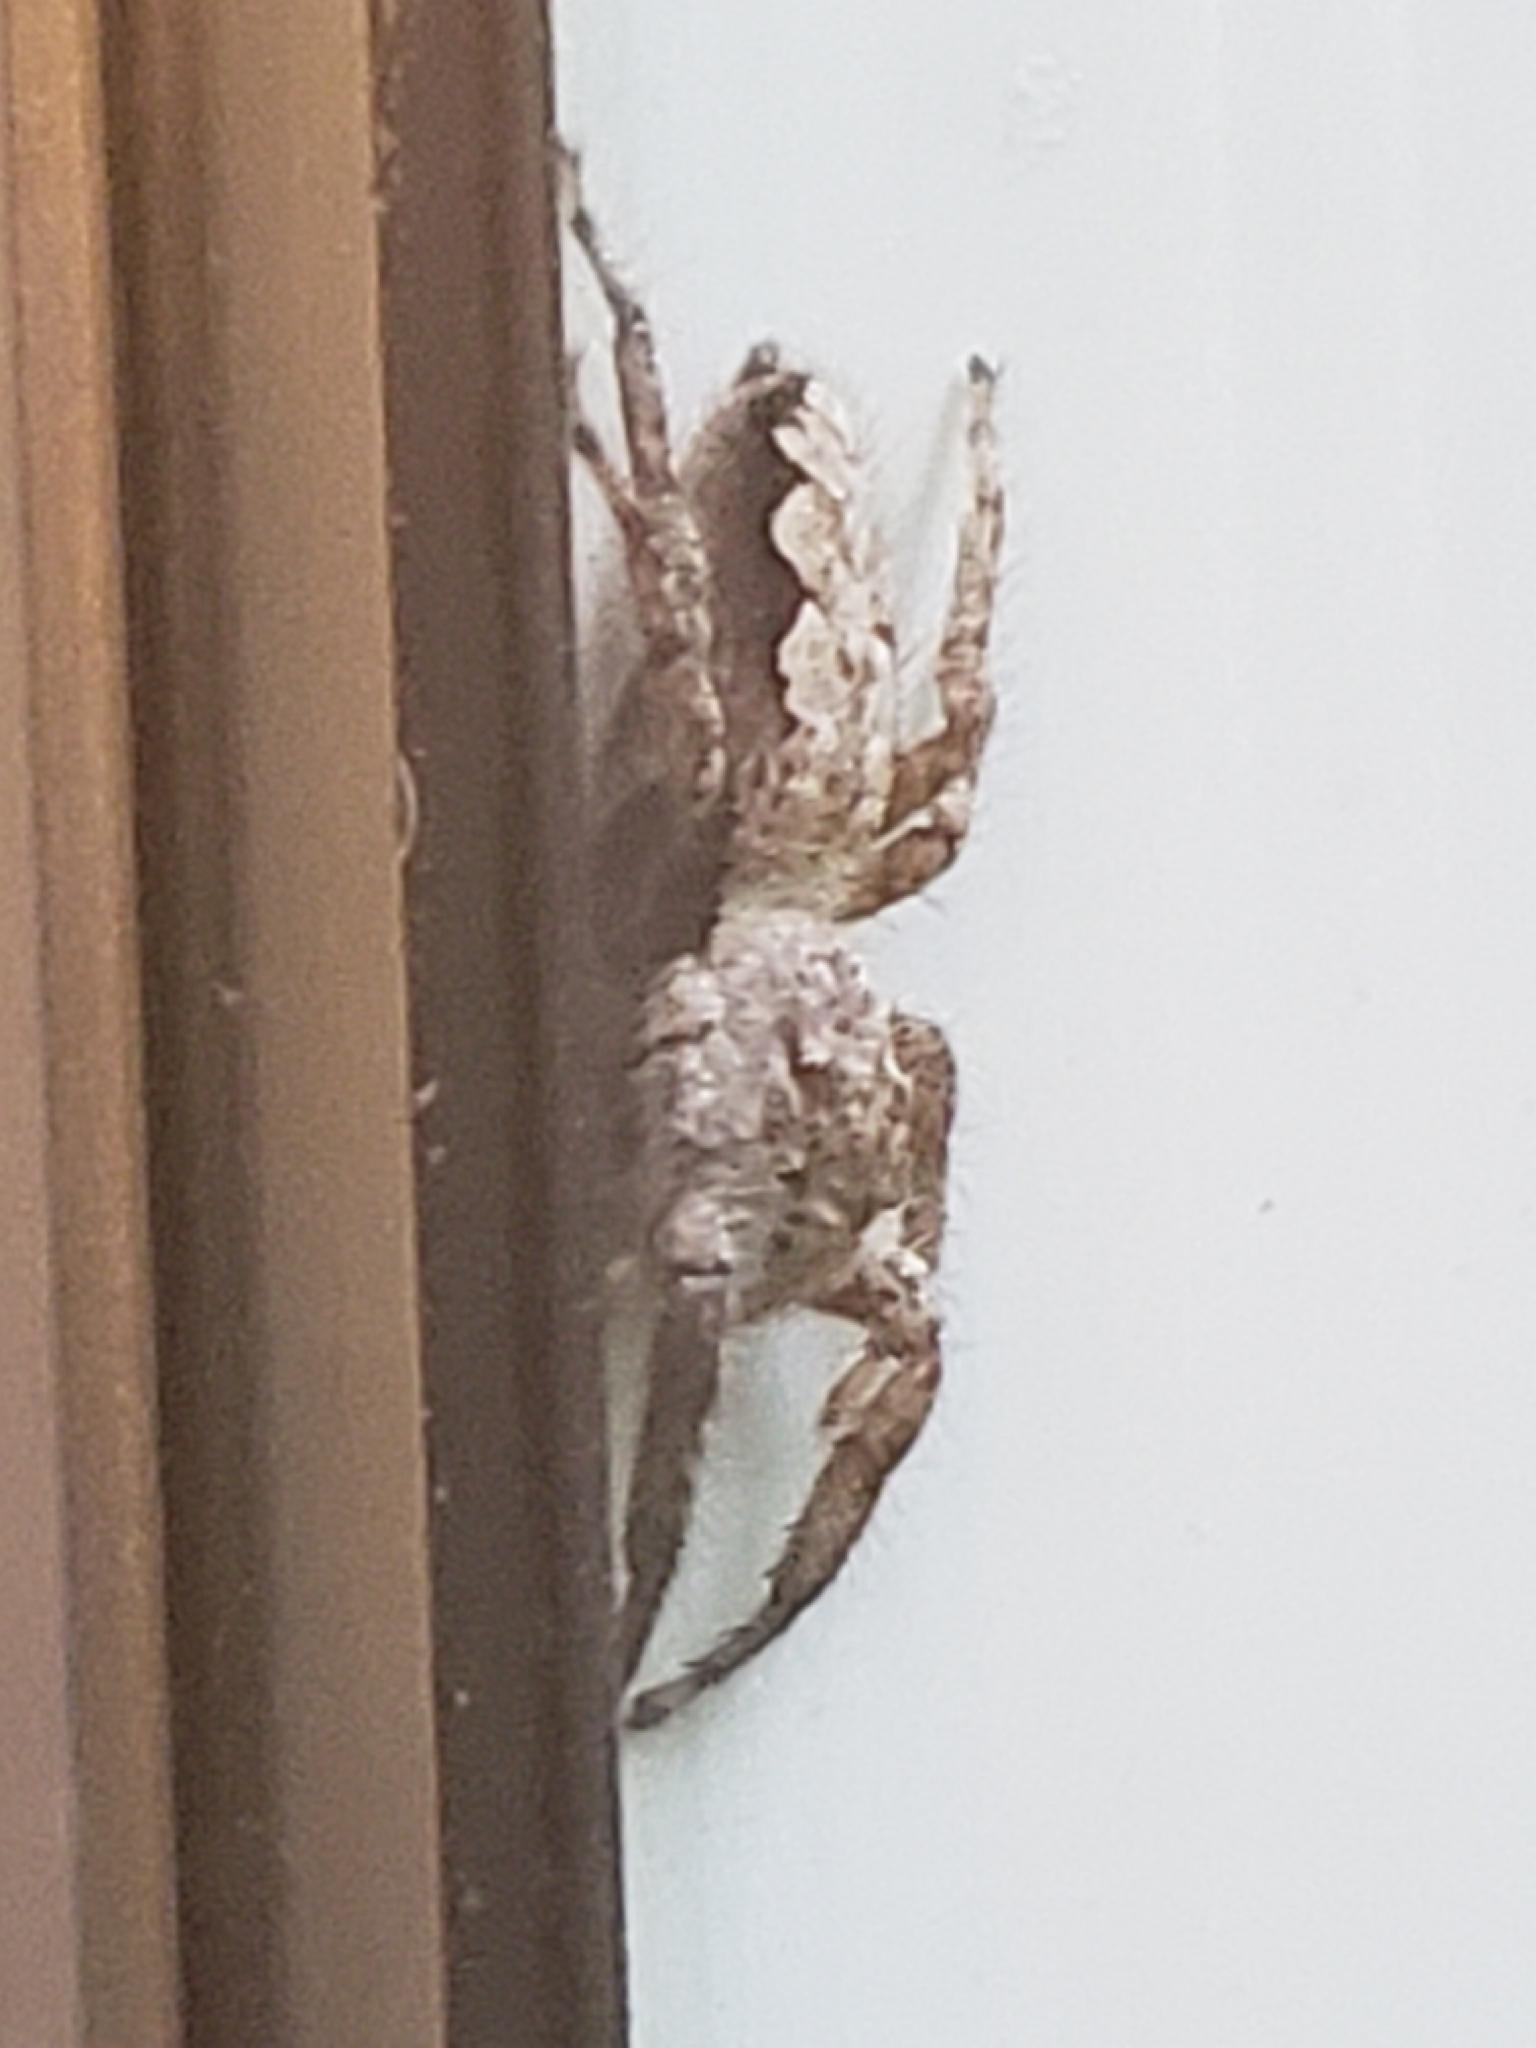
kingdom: Animalia
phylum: Arthropoda
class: Arachnida
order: Araneae
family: Salticidae
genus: Platycryptus
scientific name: Platycryptus undatus
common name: Tan jumping spider
